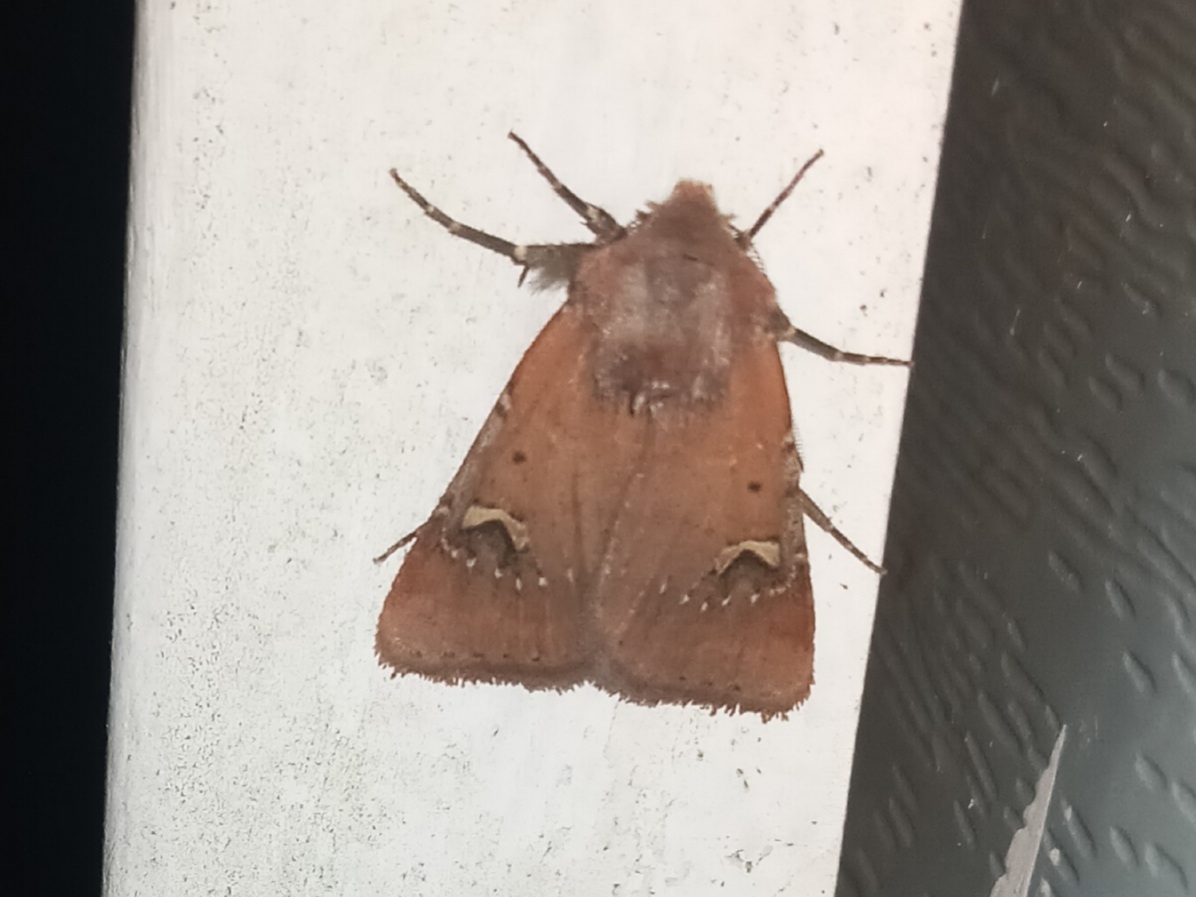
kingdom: Animalia
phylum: Arthropoda
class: Insecta
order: Lepidoptera
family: Noctuidae
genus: Eucoptocnemis
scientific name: Eucoptocnemis fimbriaris
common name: Fringed dart
